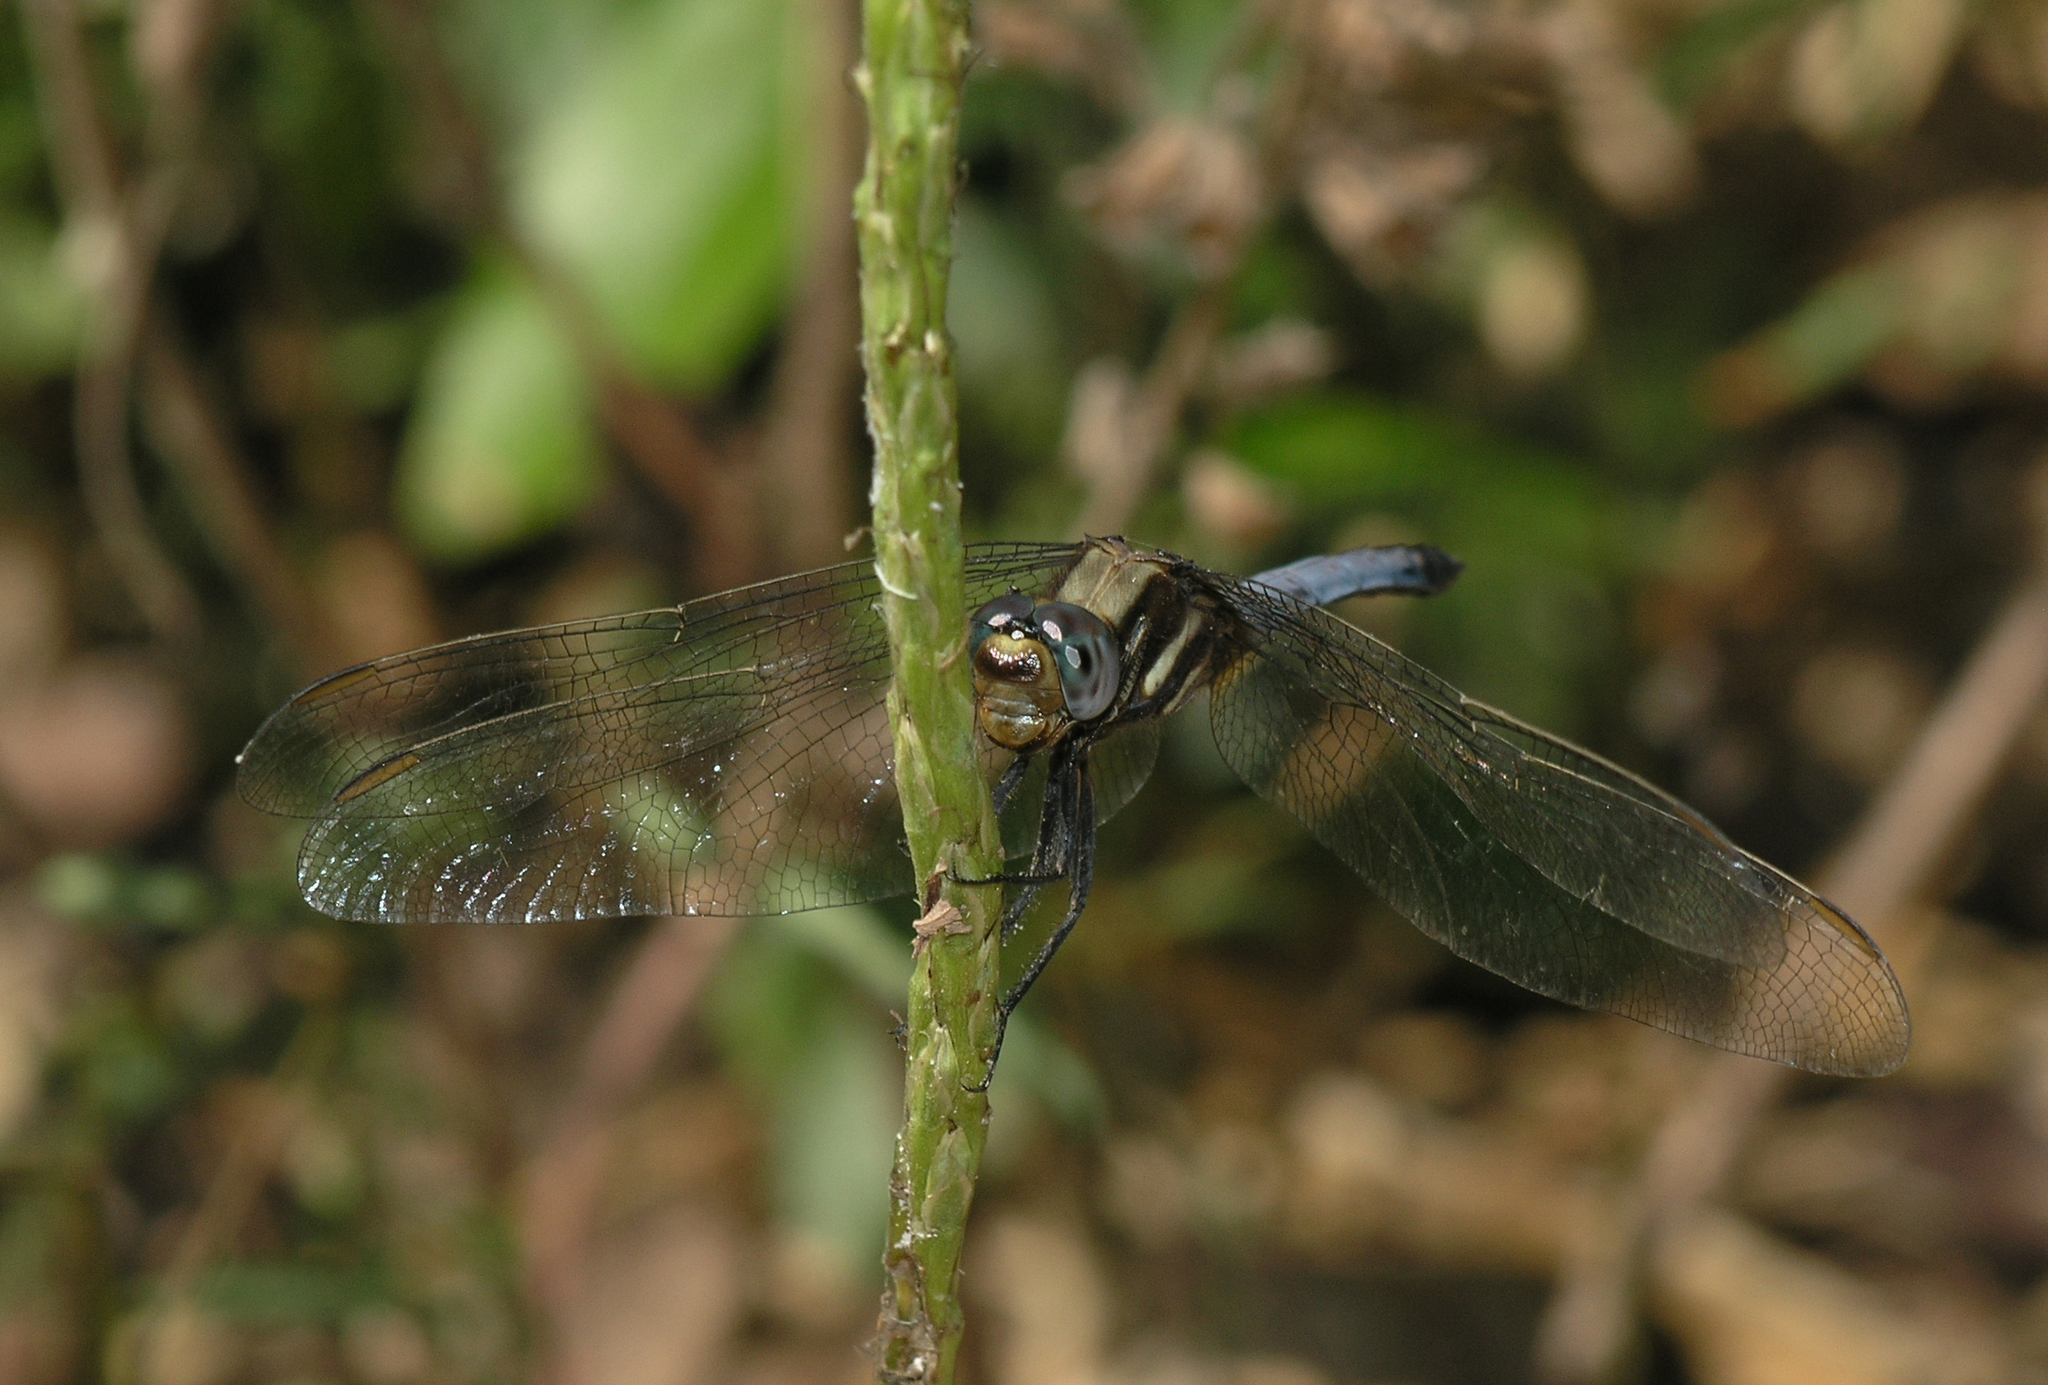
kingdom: Animalia
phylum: Arthropoda
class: Insecta
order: Odonata
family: Libellulidae
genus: Orthetrum
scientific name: Orthetrum glaucum
